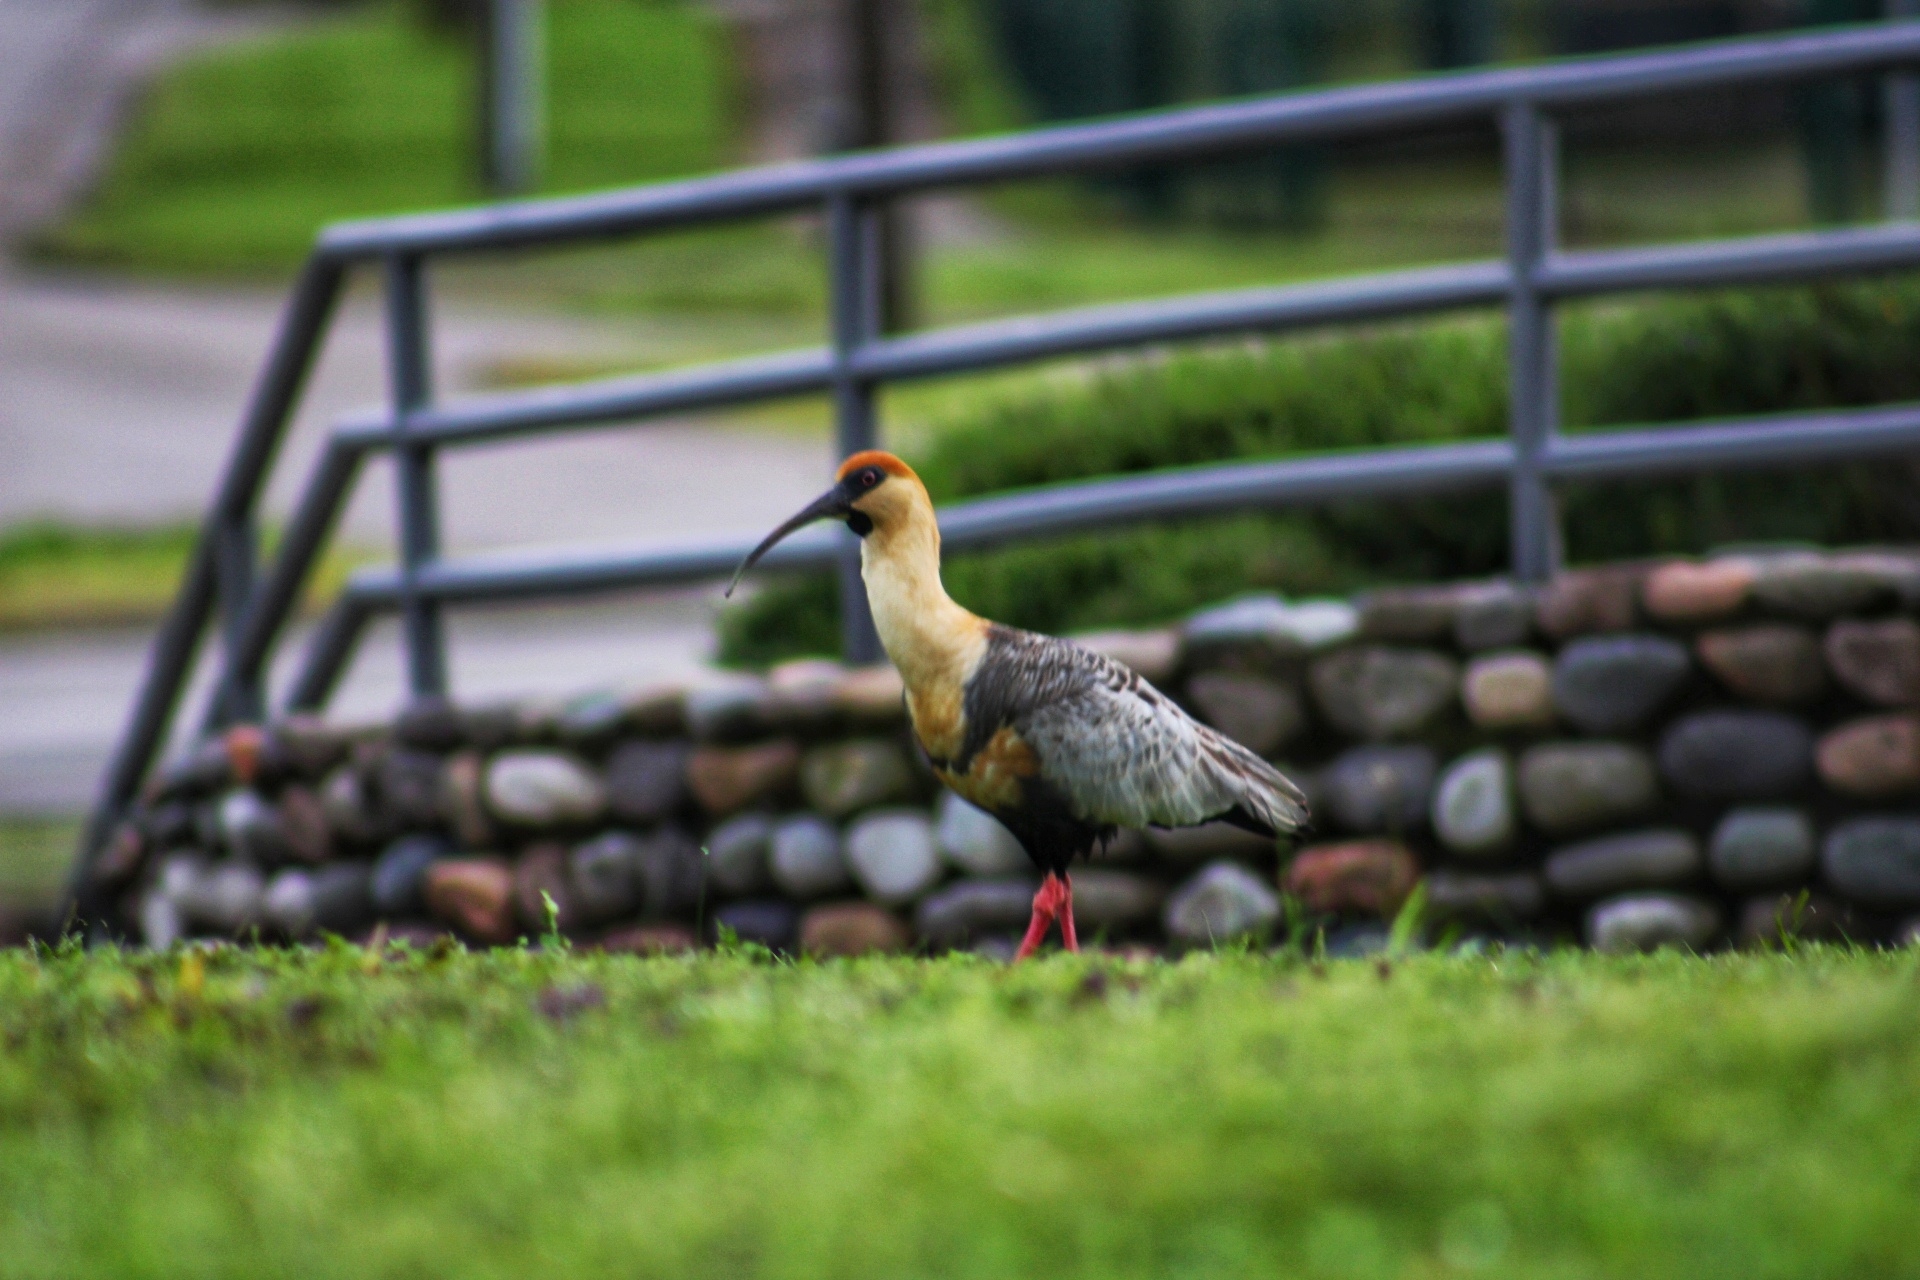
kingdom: Animalia
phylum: Chordata
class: Aves
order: Pelecaniformes
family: Threskiornithidae
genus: Theristicus
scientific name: Theristicus melanopis
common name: Black-faced ibis
